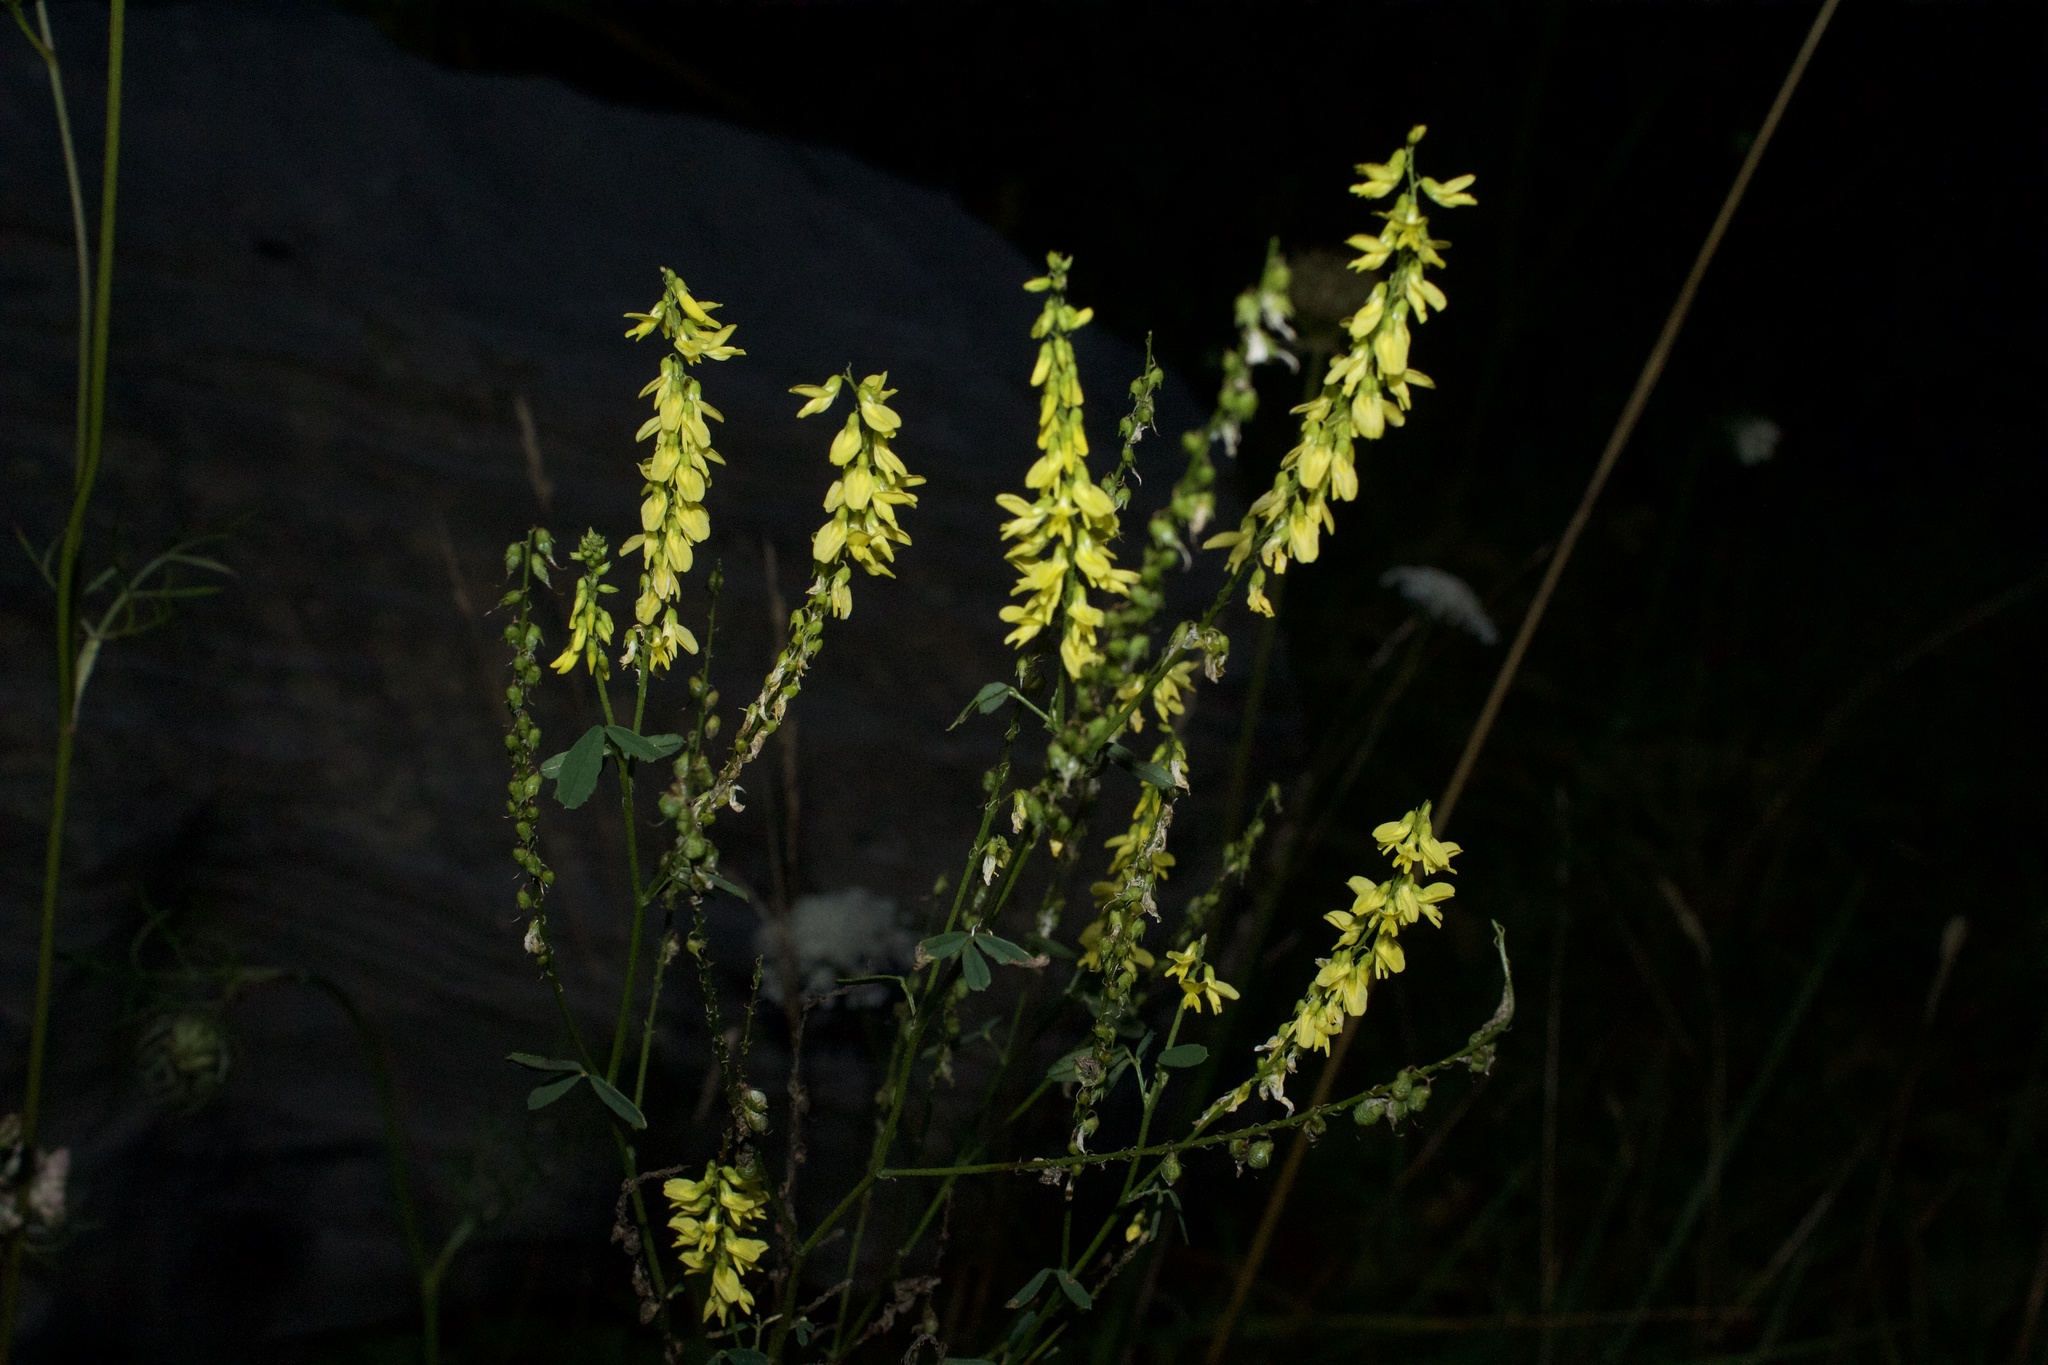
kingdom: Plantae
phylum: Tracheophyta
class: Magnoliopsida
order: Fabales
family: Fabaceae
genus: Melilotus
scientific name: Melilotus officinalis
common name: Sweetclover
